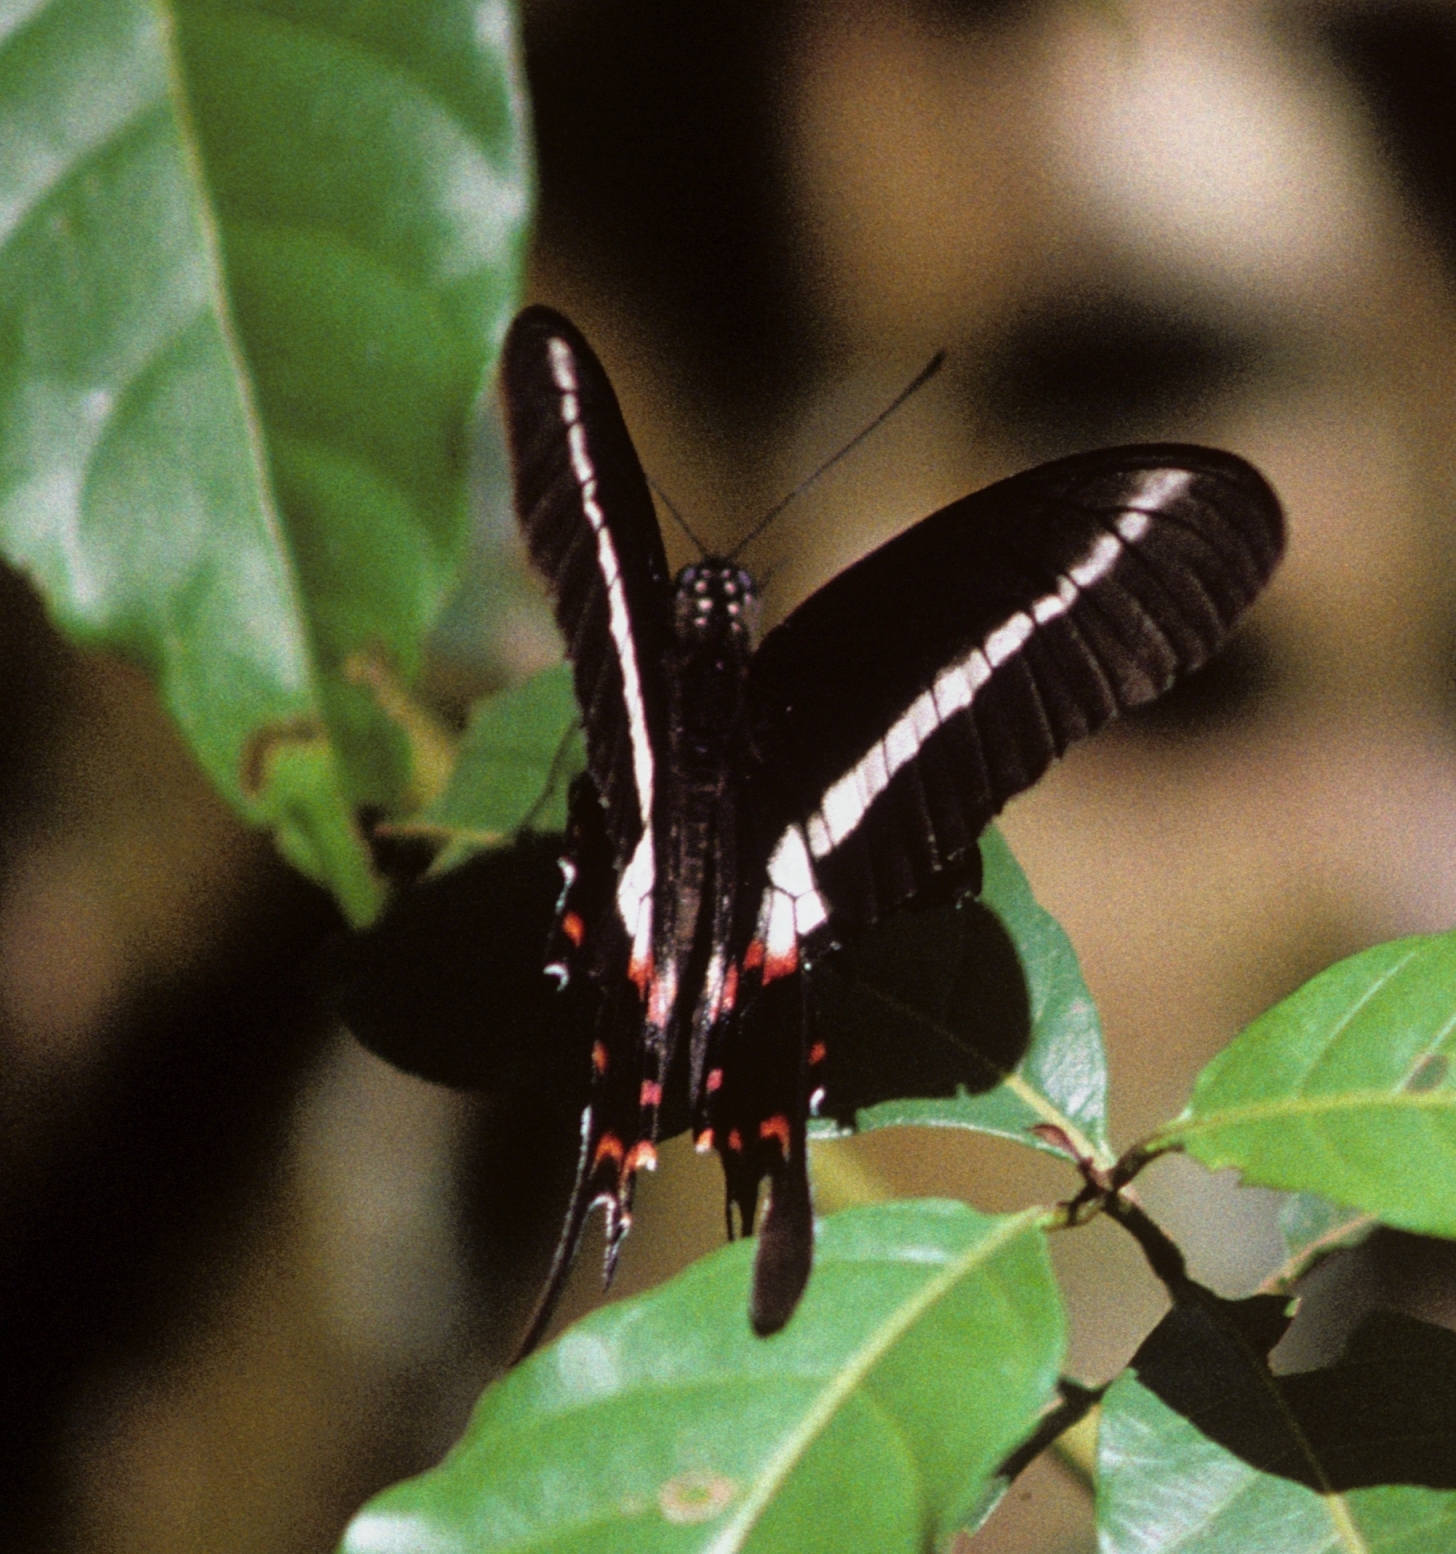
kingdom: Animalia
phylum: Arthropoda
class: Insecta
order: Lepidoptera
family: Papilionidae
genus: Heraclides
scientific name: Heraclides hectorides
